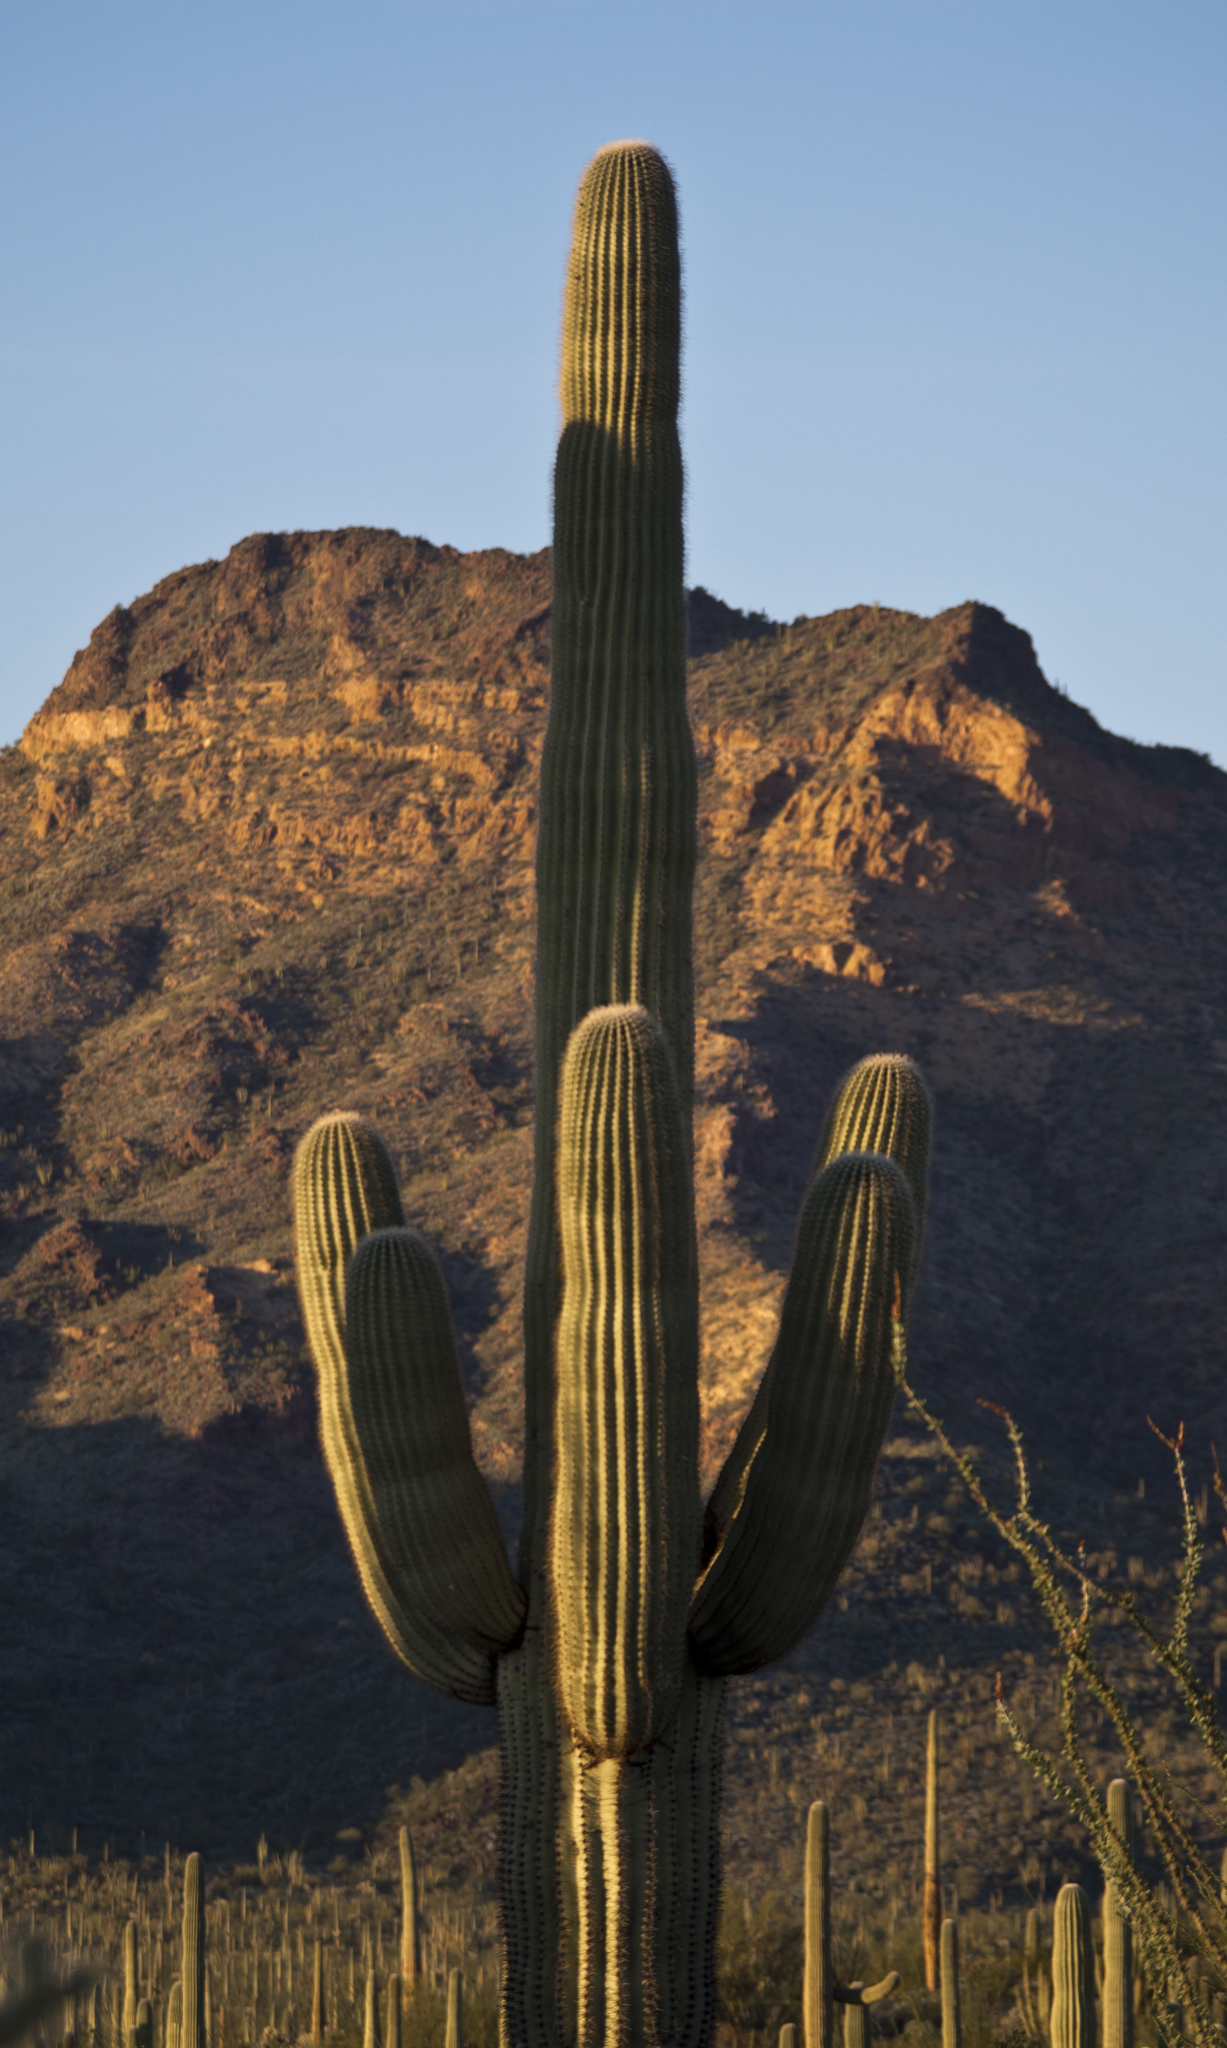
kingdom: Plantae
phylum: Tracheophyta
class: Magnoliopsida
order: Caryophyllales
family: Cactaceae
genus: Carnegiea
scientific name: Carnegiea gigantea
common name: Saguaro
